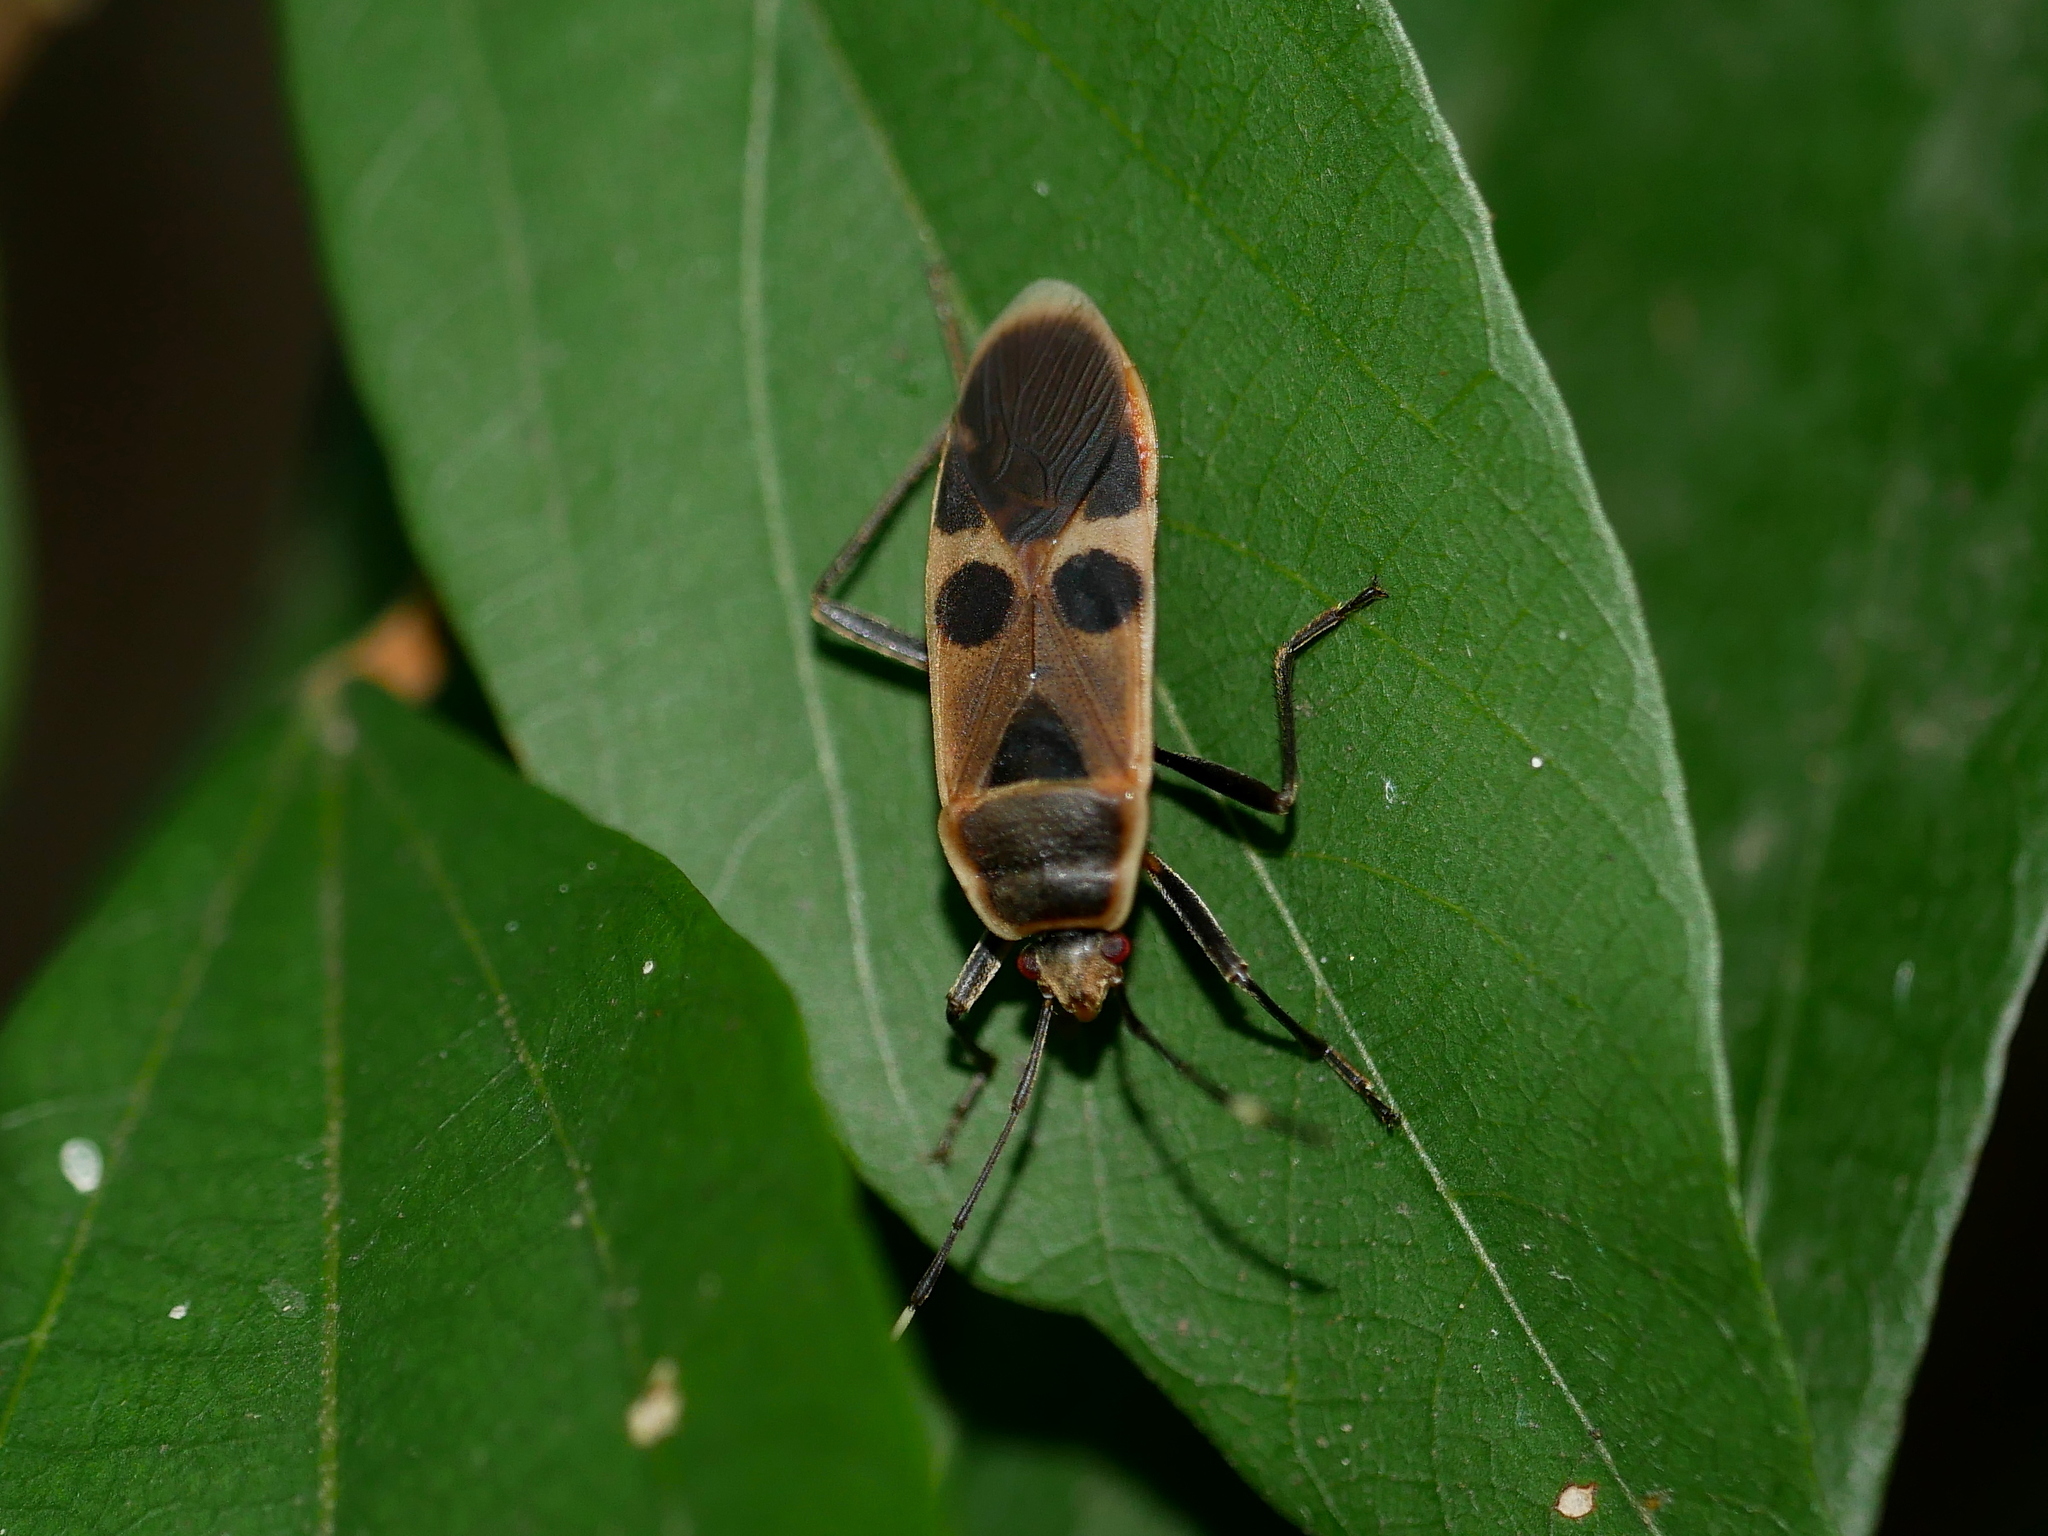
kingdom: Animalia
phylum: Arthropoda
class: Insecta
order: Hemiptera
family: Largidae
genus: Physopelta
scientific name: Physopelta gutta
